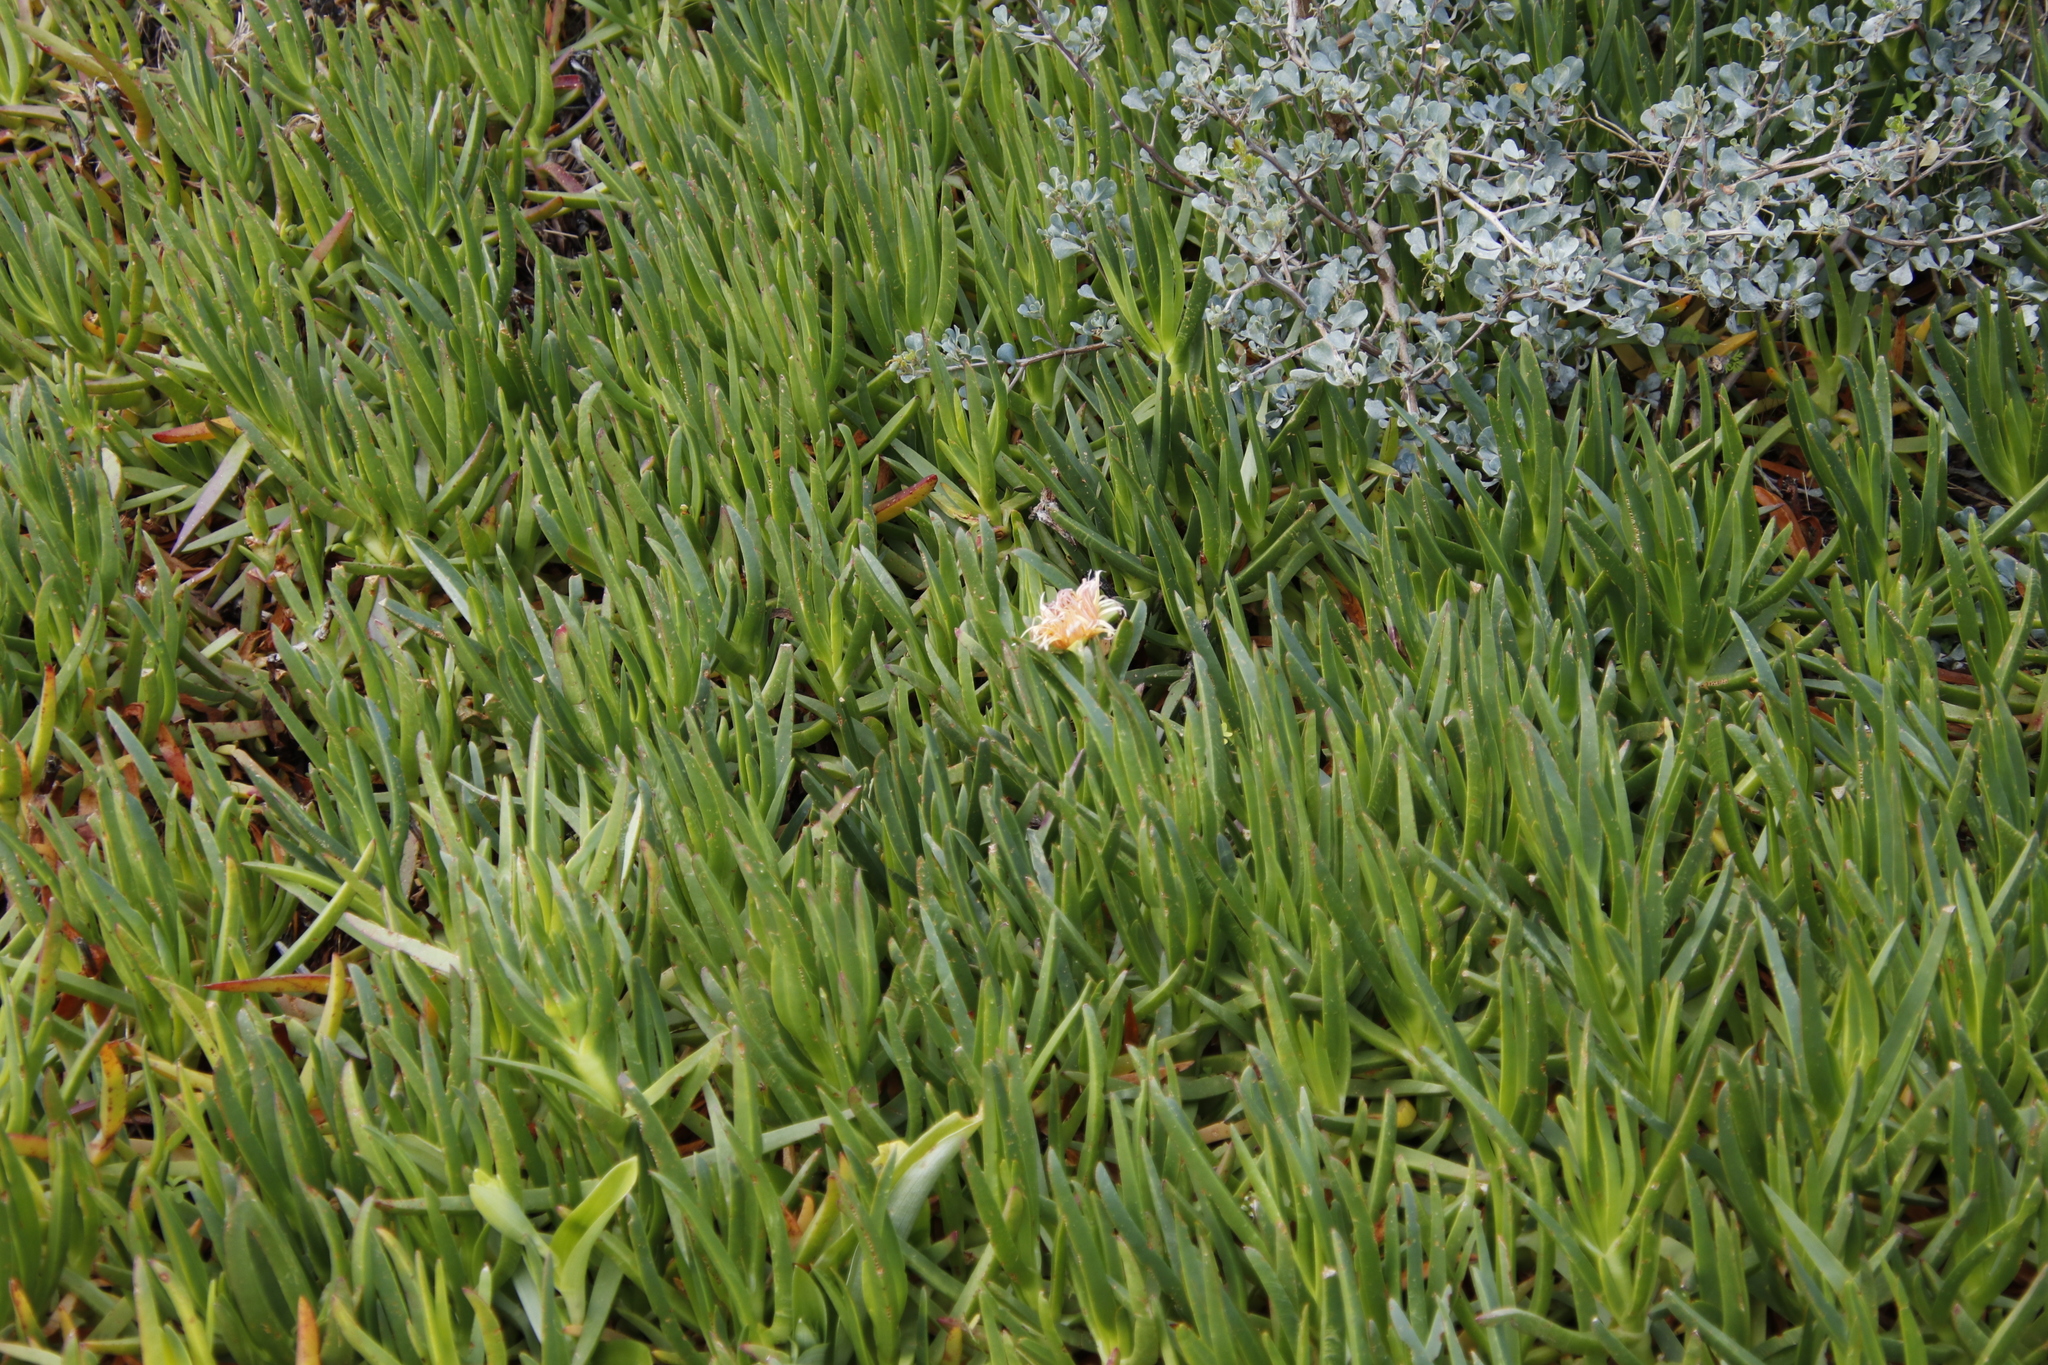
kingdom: Plantae
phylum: Tracheophyta
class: Magnoliopsida
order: Caryophyllales
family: Aizoaceae
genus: Carpobrotus
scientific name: Carpobrotus edulis
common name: Hottentot-fig
